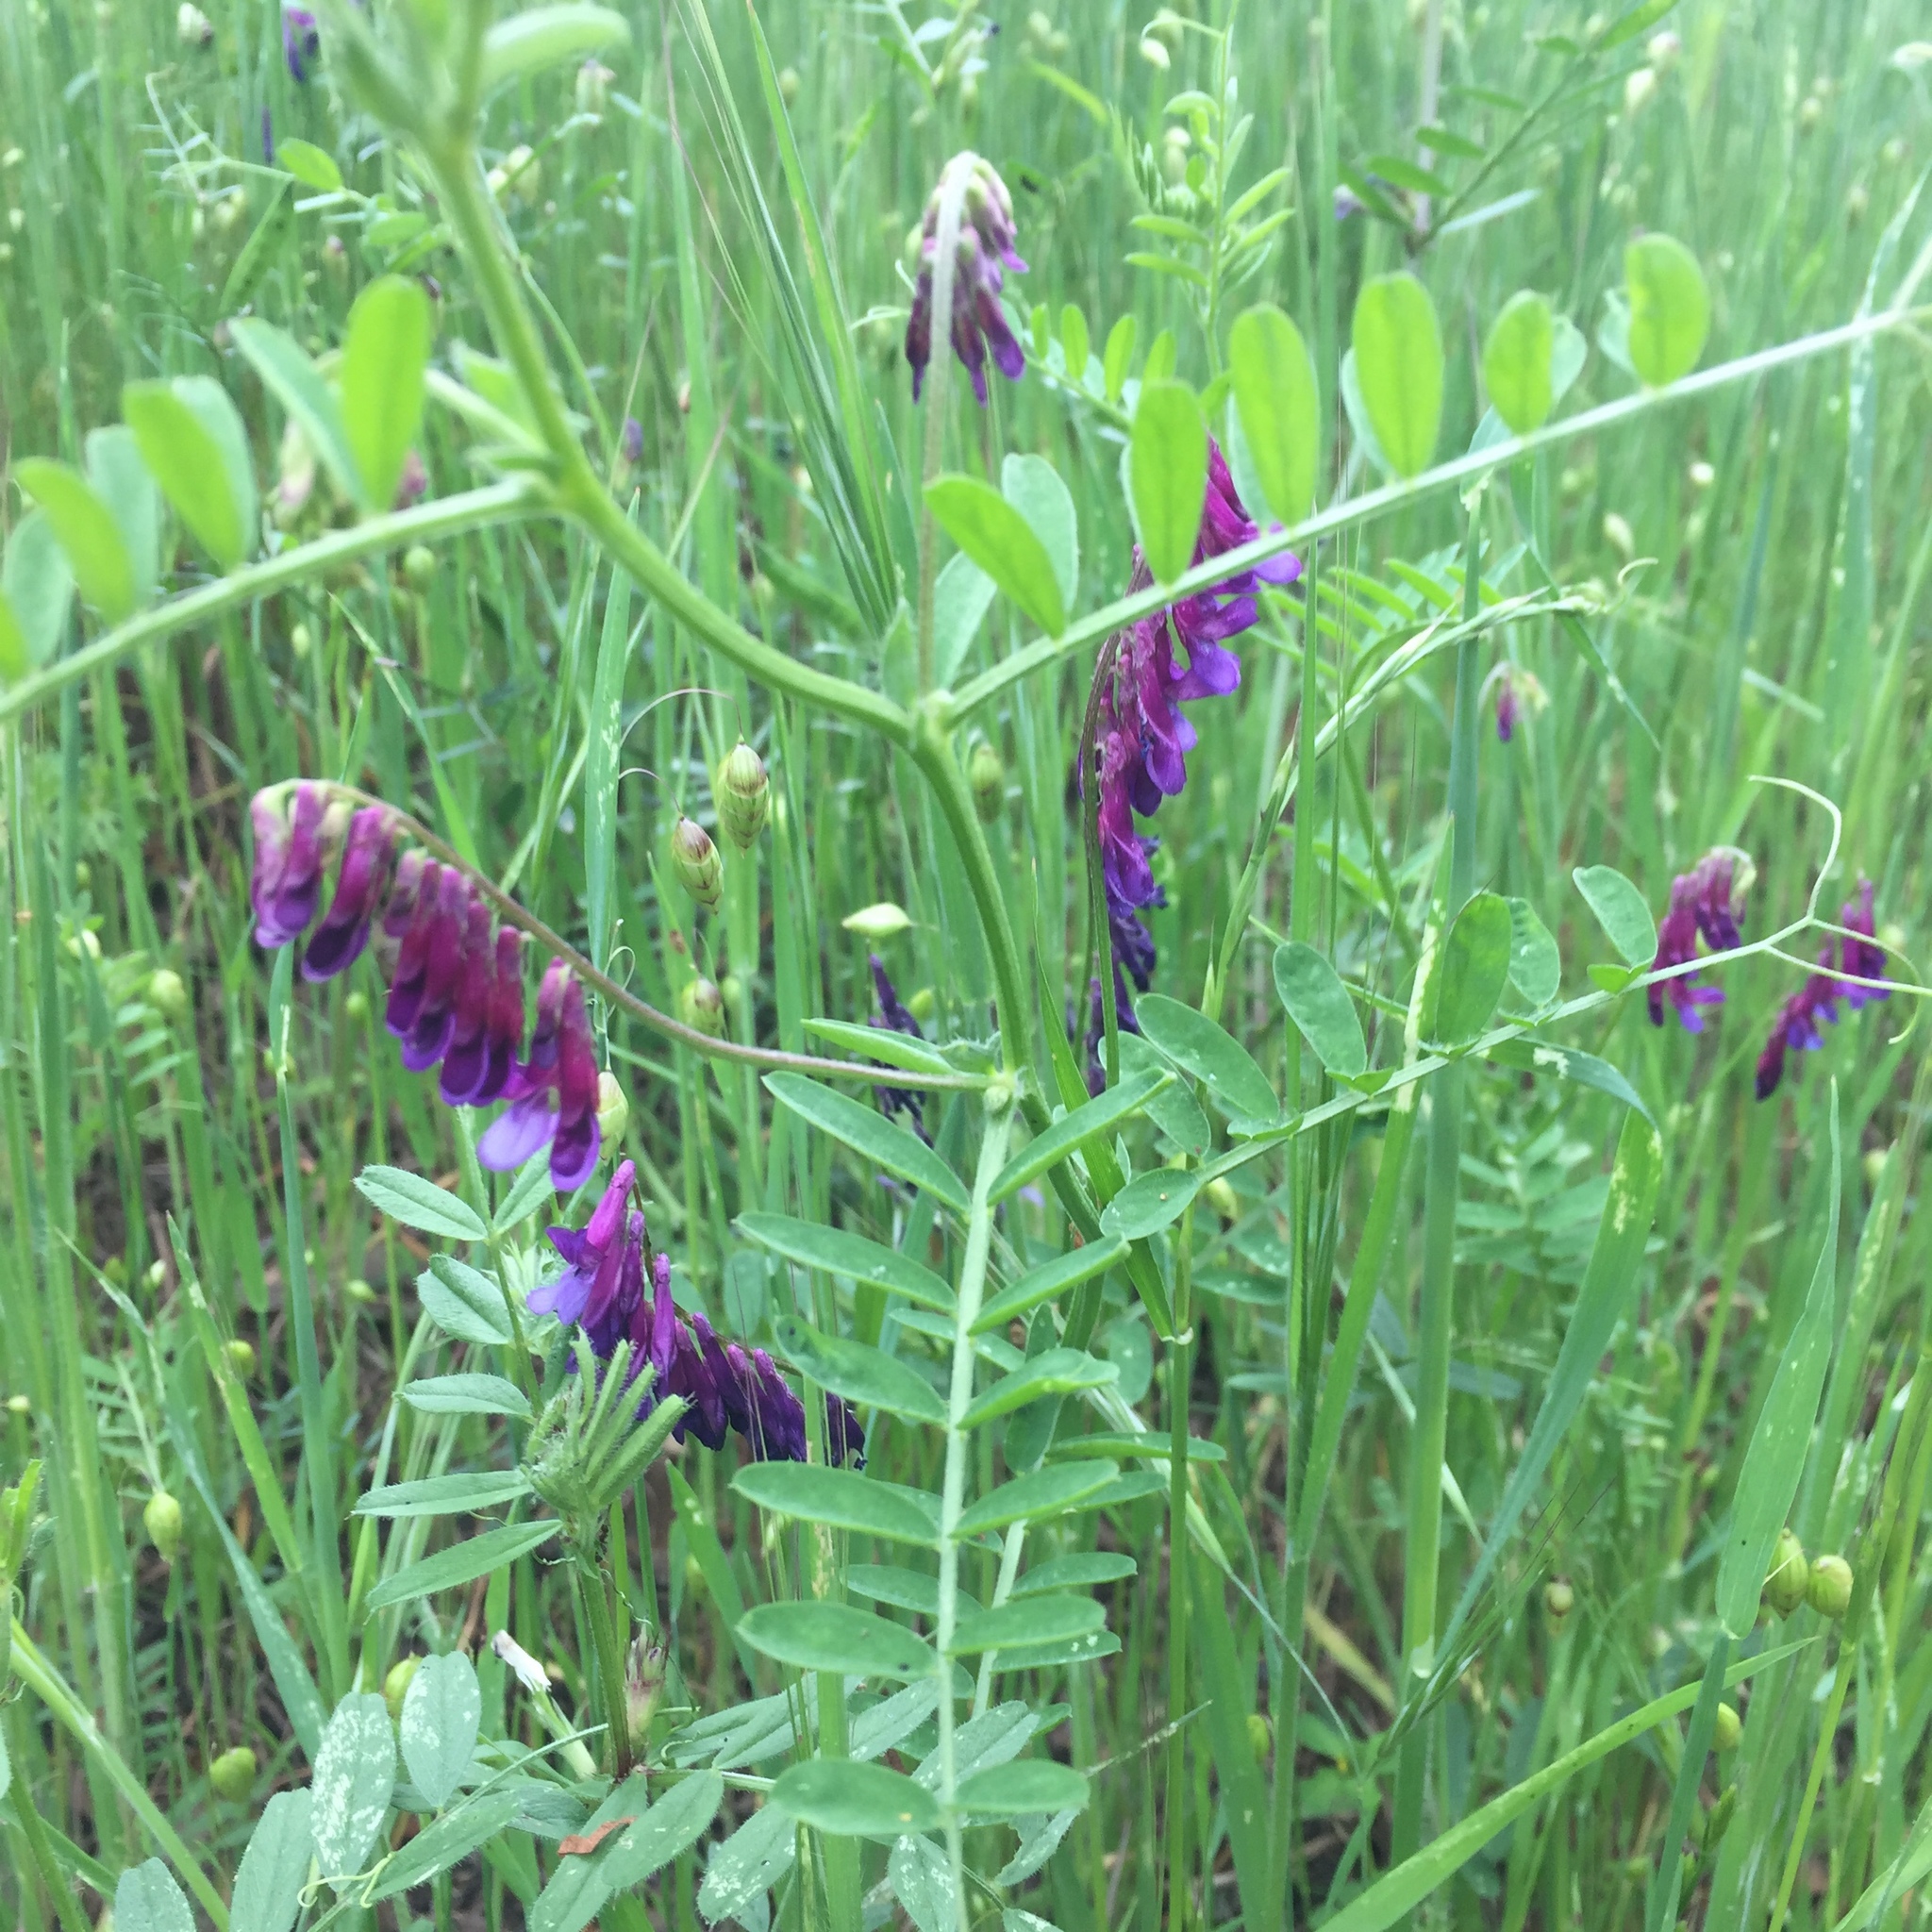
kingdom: Plantae
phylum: Tracheophyta
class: Magnoliopsida
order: Fabales
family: Fabaceae
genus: Vicia
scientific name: Vicia villosa
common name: Fodder vetch
